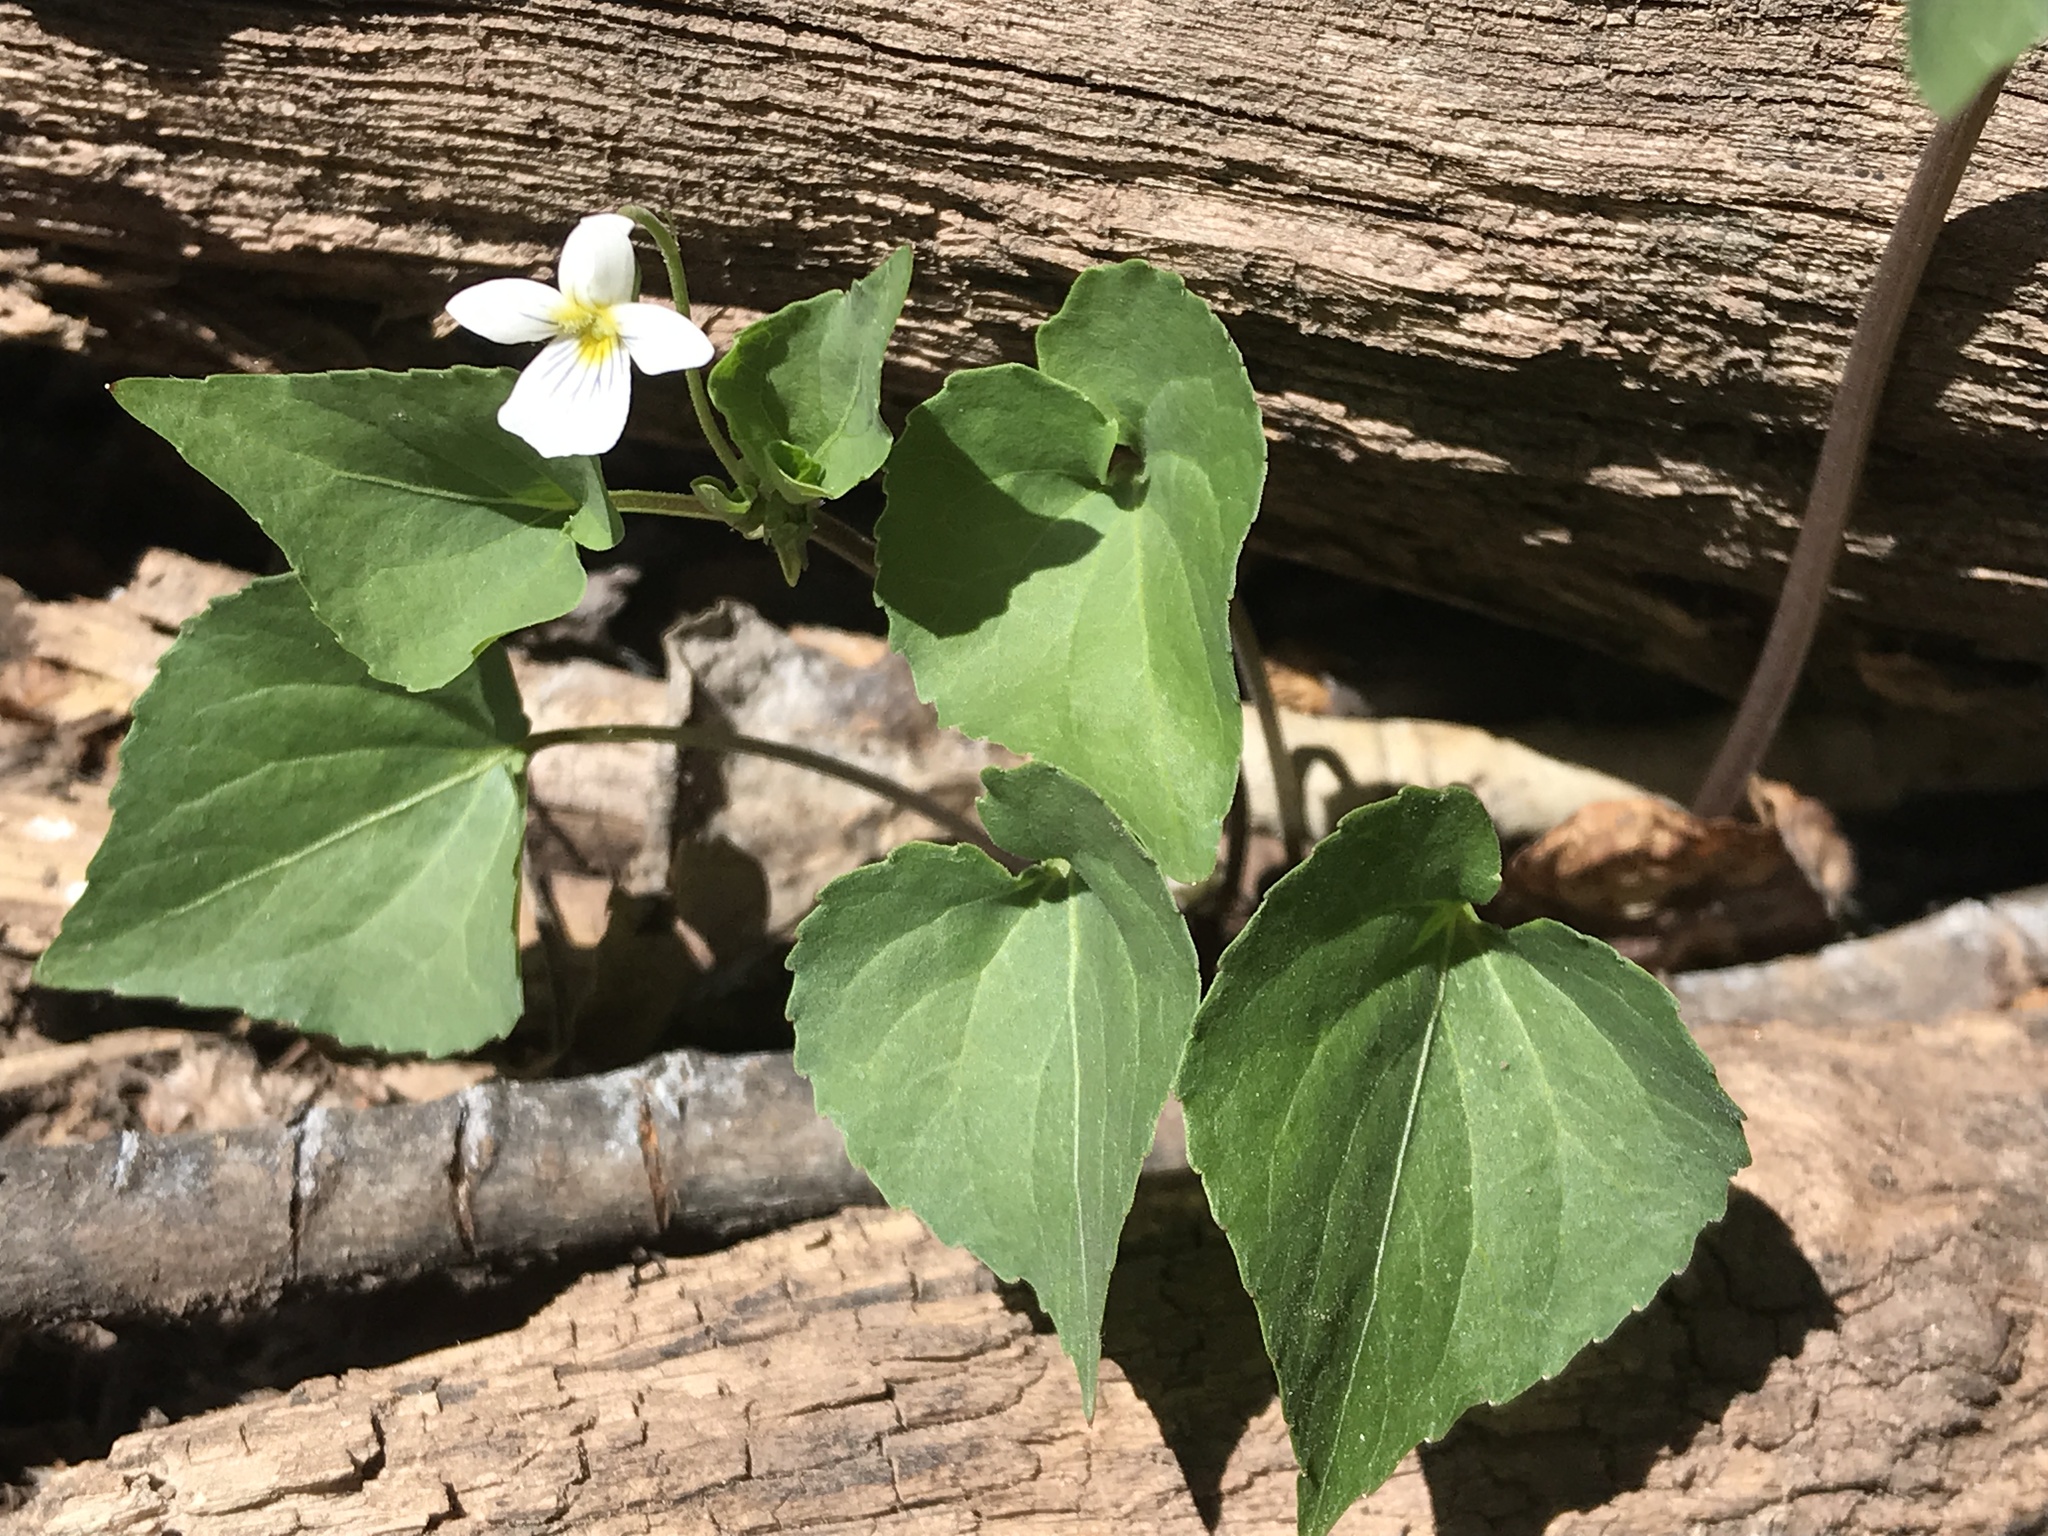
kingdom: Plantae
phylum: Tracheophyta
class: Magnoliopsida
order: Malpighiales
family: Violaceae
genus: Viola
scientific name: Viola canadensis
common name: Canada violet
